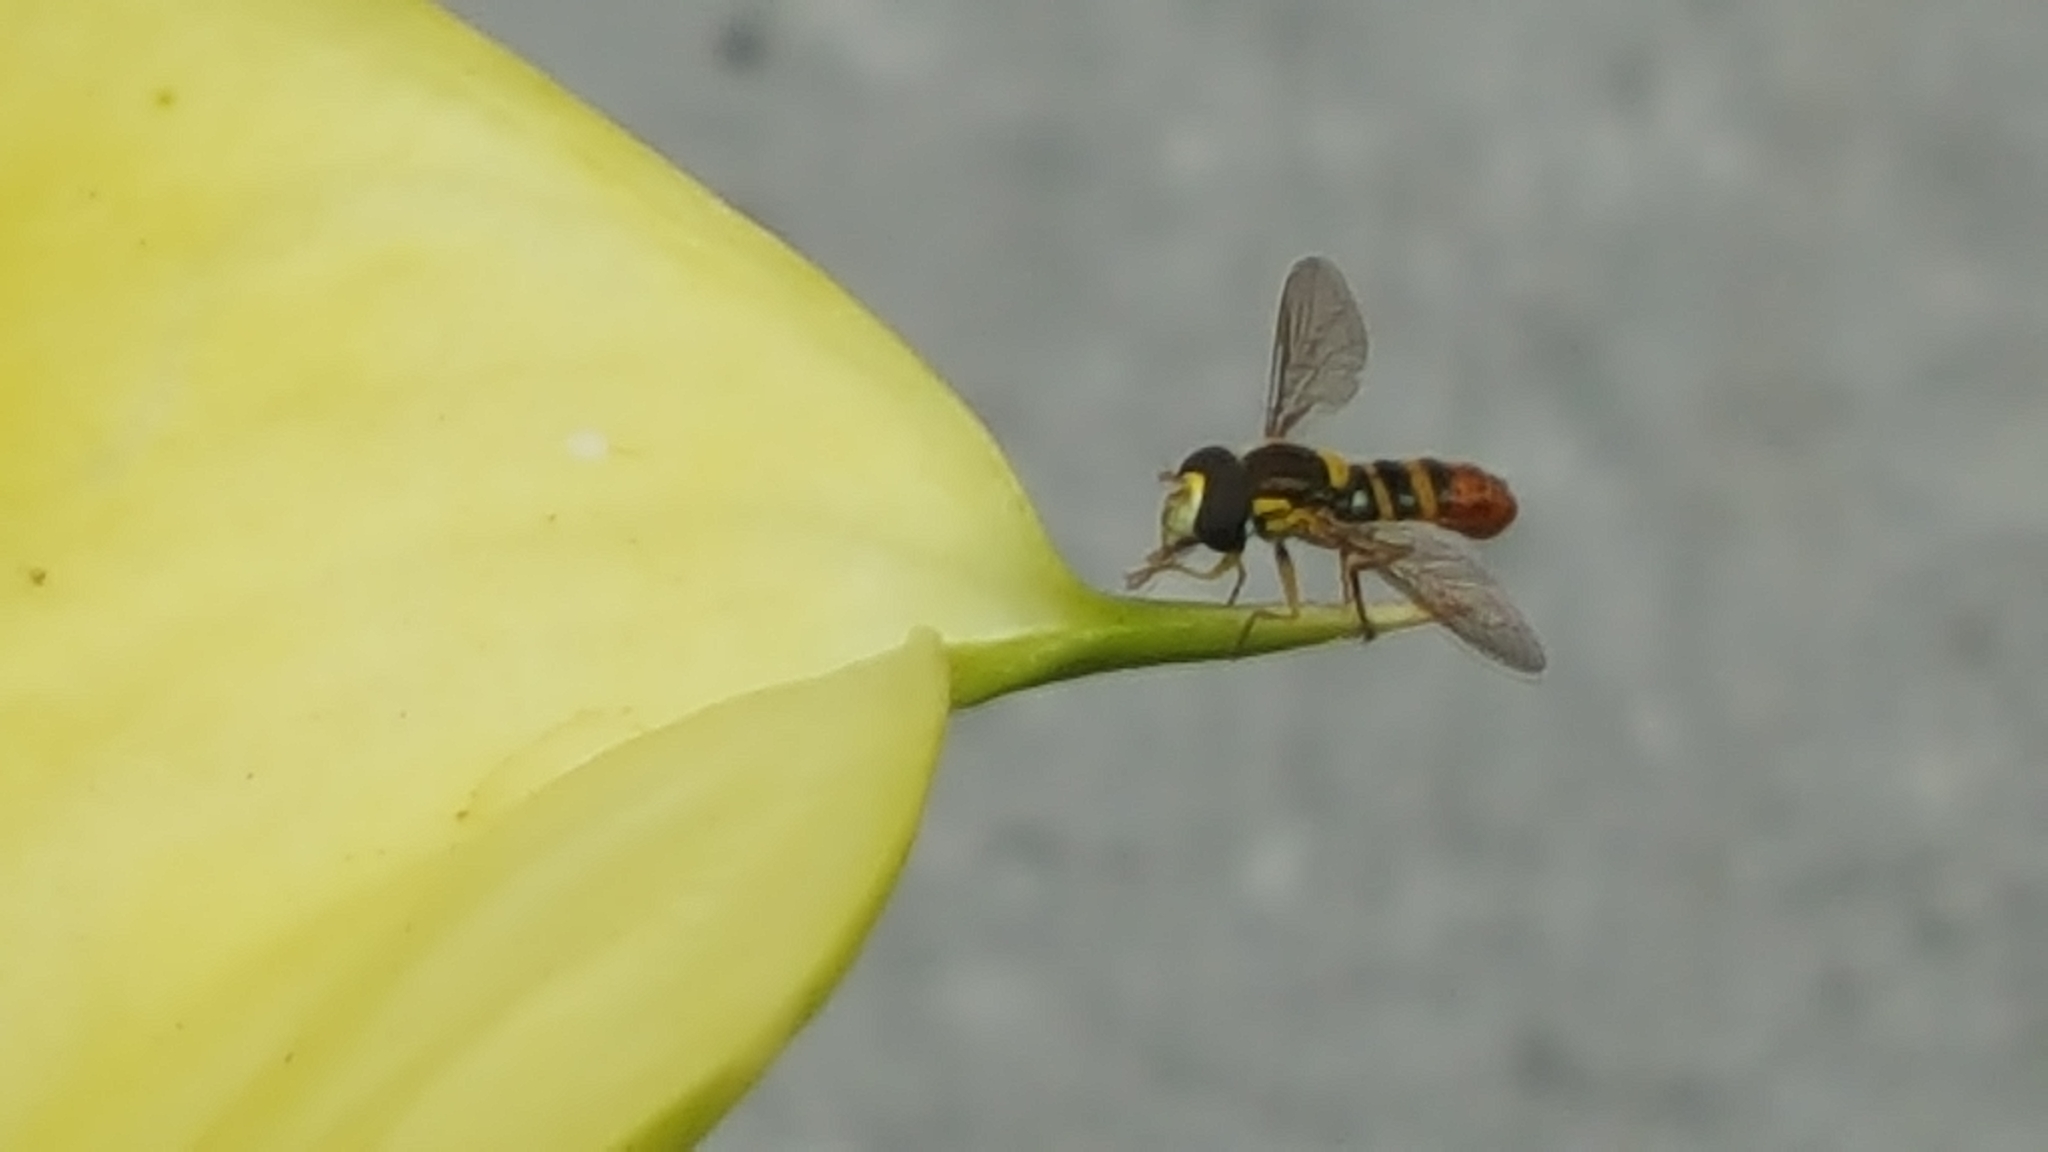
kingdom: Animalia
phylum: Arthropoda
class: Insecta
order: Diptera
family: Syrphidae
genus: Sphaerophoria
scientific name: Sphaerophoria sulphuripes
